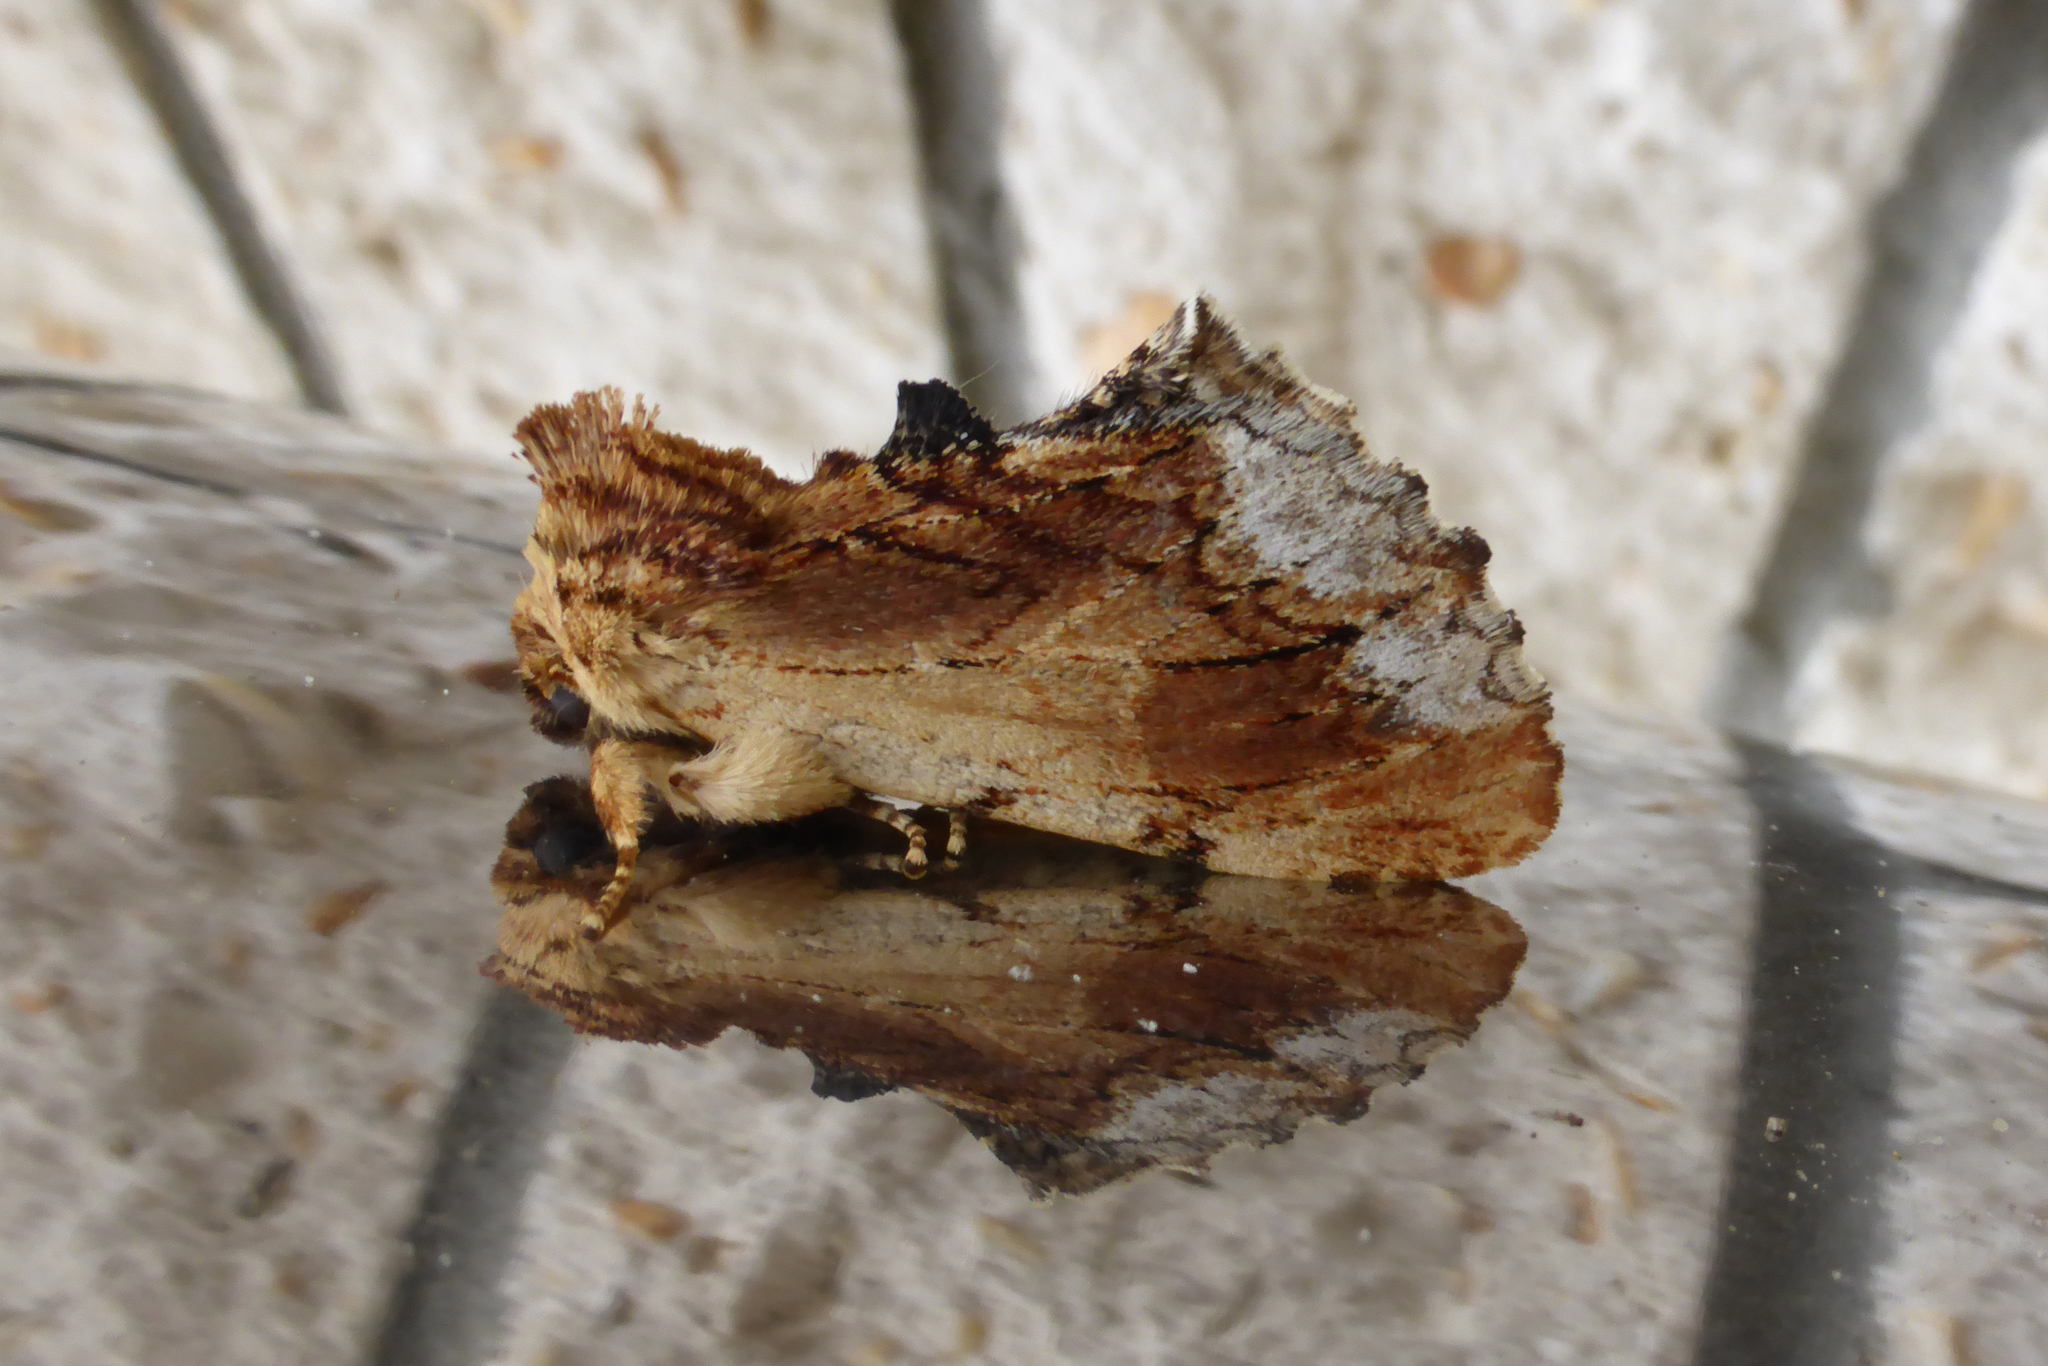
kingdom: Animalia
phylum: Arthropoda
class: Insecta
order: Lepidoptera
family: Notodontidae
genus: Ptilodon
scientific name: Ptilodon cucullina
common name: Maple prominent
